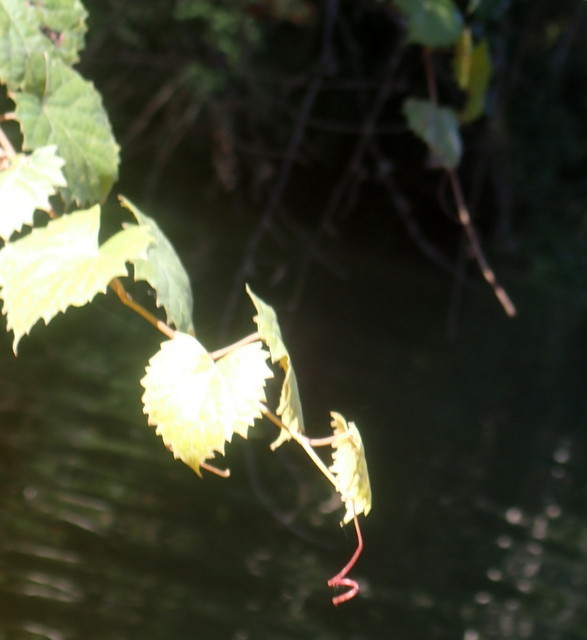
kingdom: Plantae
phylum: Tracheophyta
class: Magnoliopsida
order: Vitales
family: Vitaceae
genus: Vitis
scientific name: Vitis rotundifolia
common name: Muscadine grape
